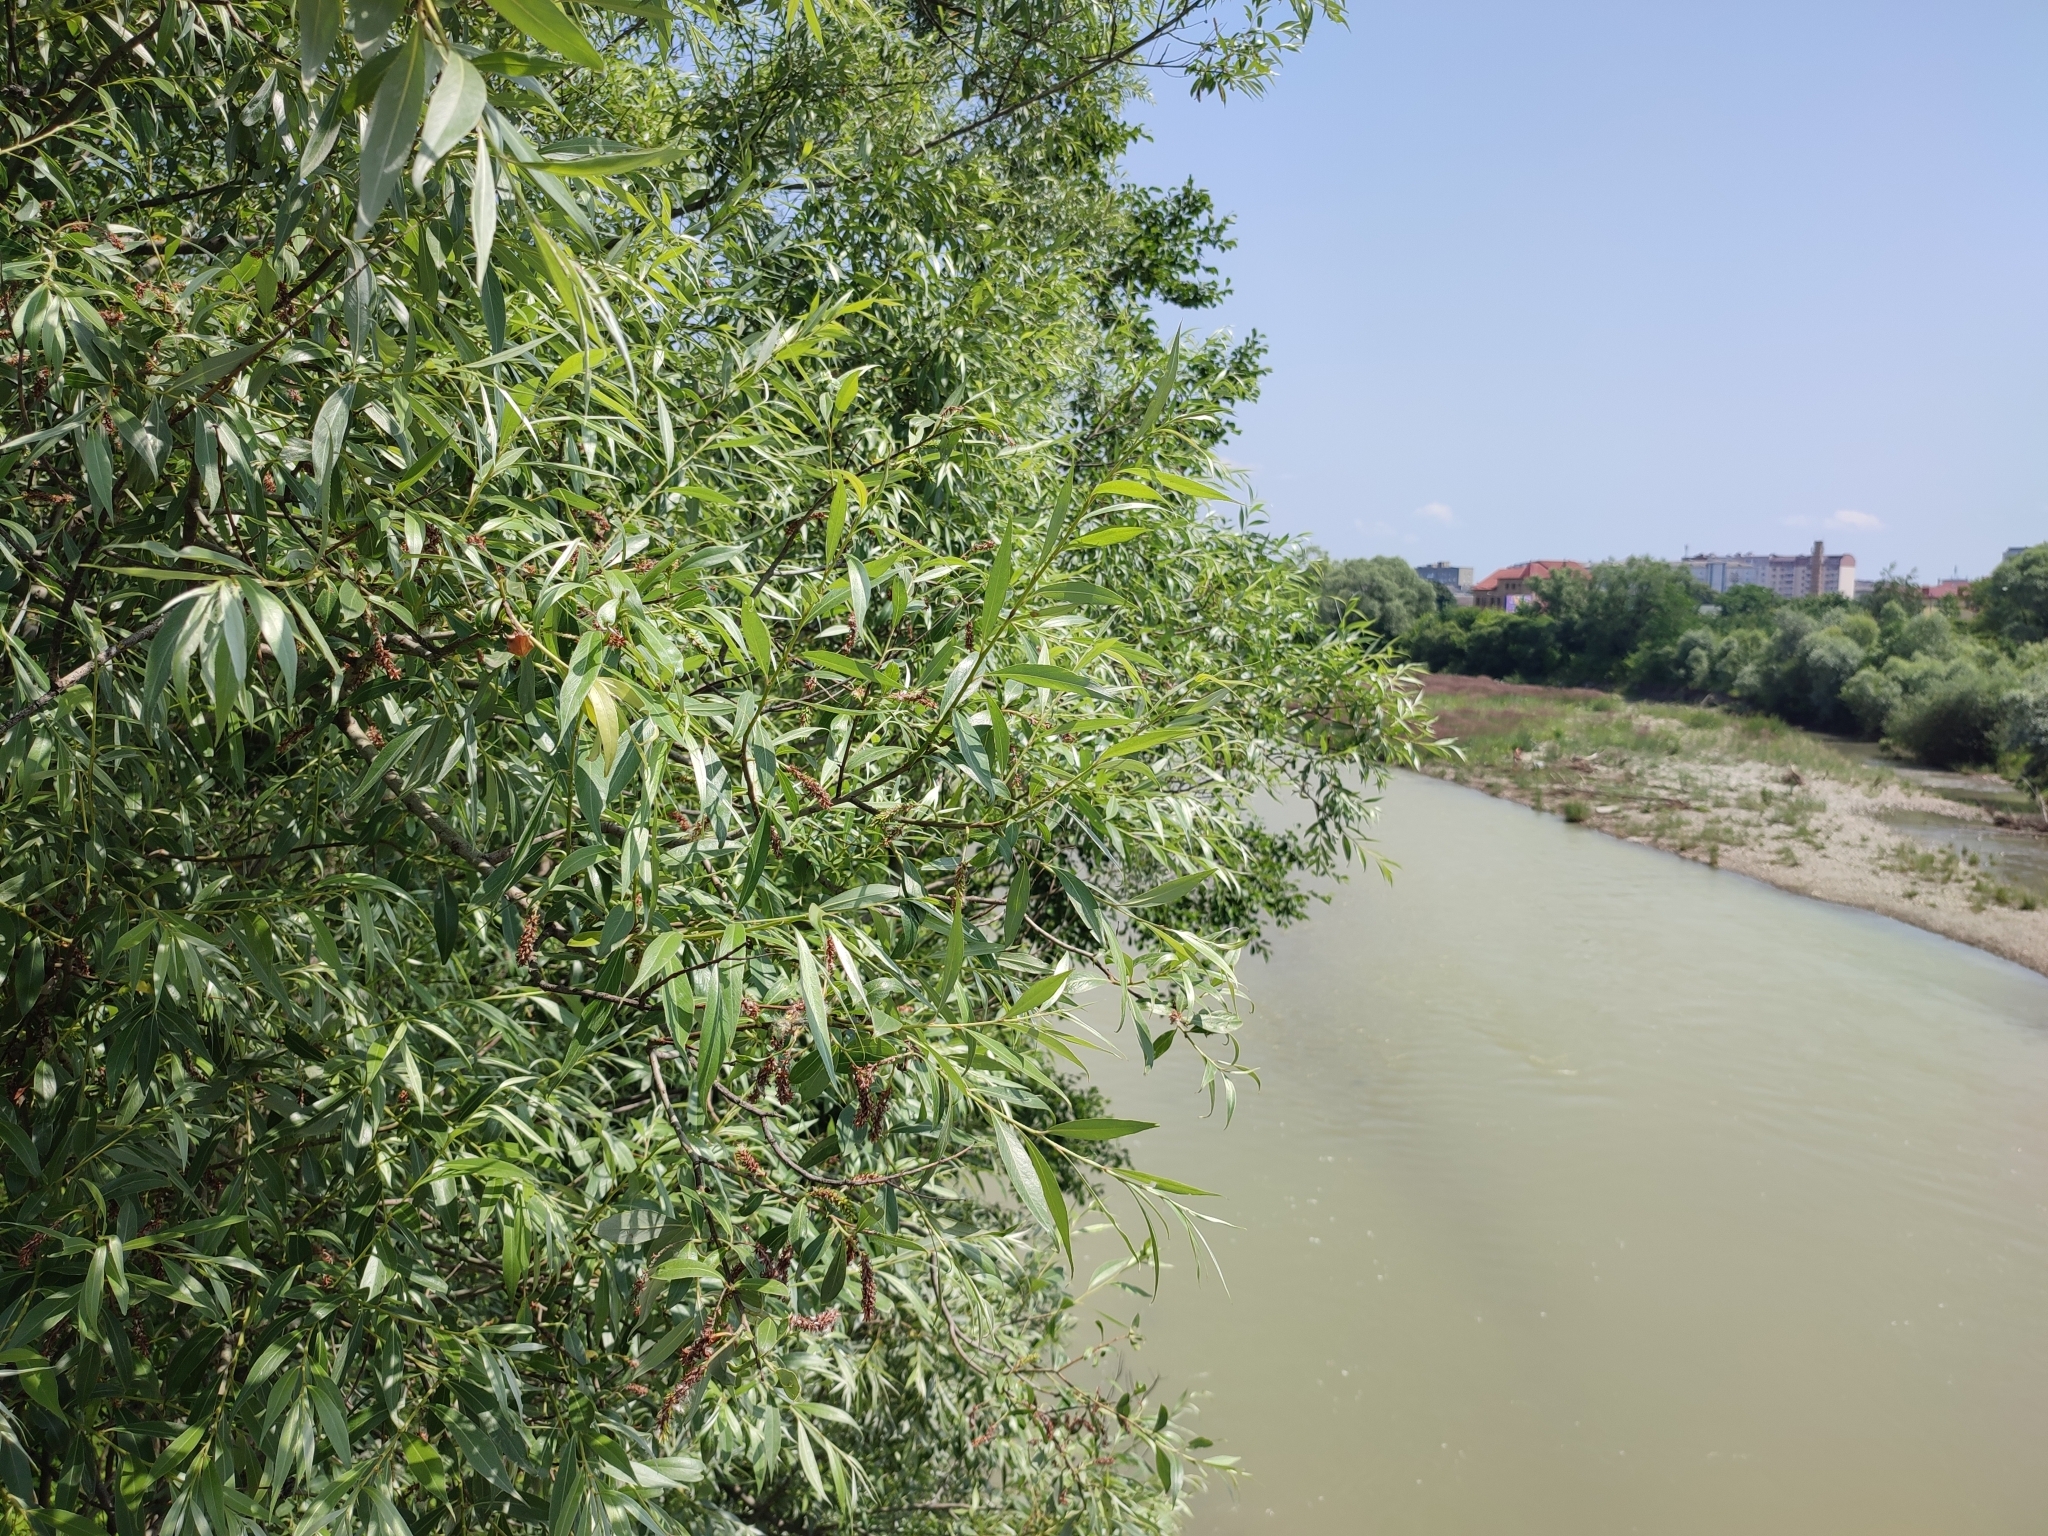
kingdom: Plantae
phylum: Tracheophyta
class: Magnoliopsida
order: Malpighiales
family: Salicaceae
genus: Salix
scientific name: Salix alba
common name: White willow
